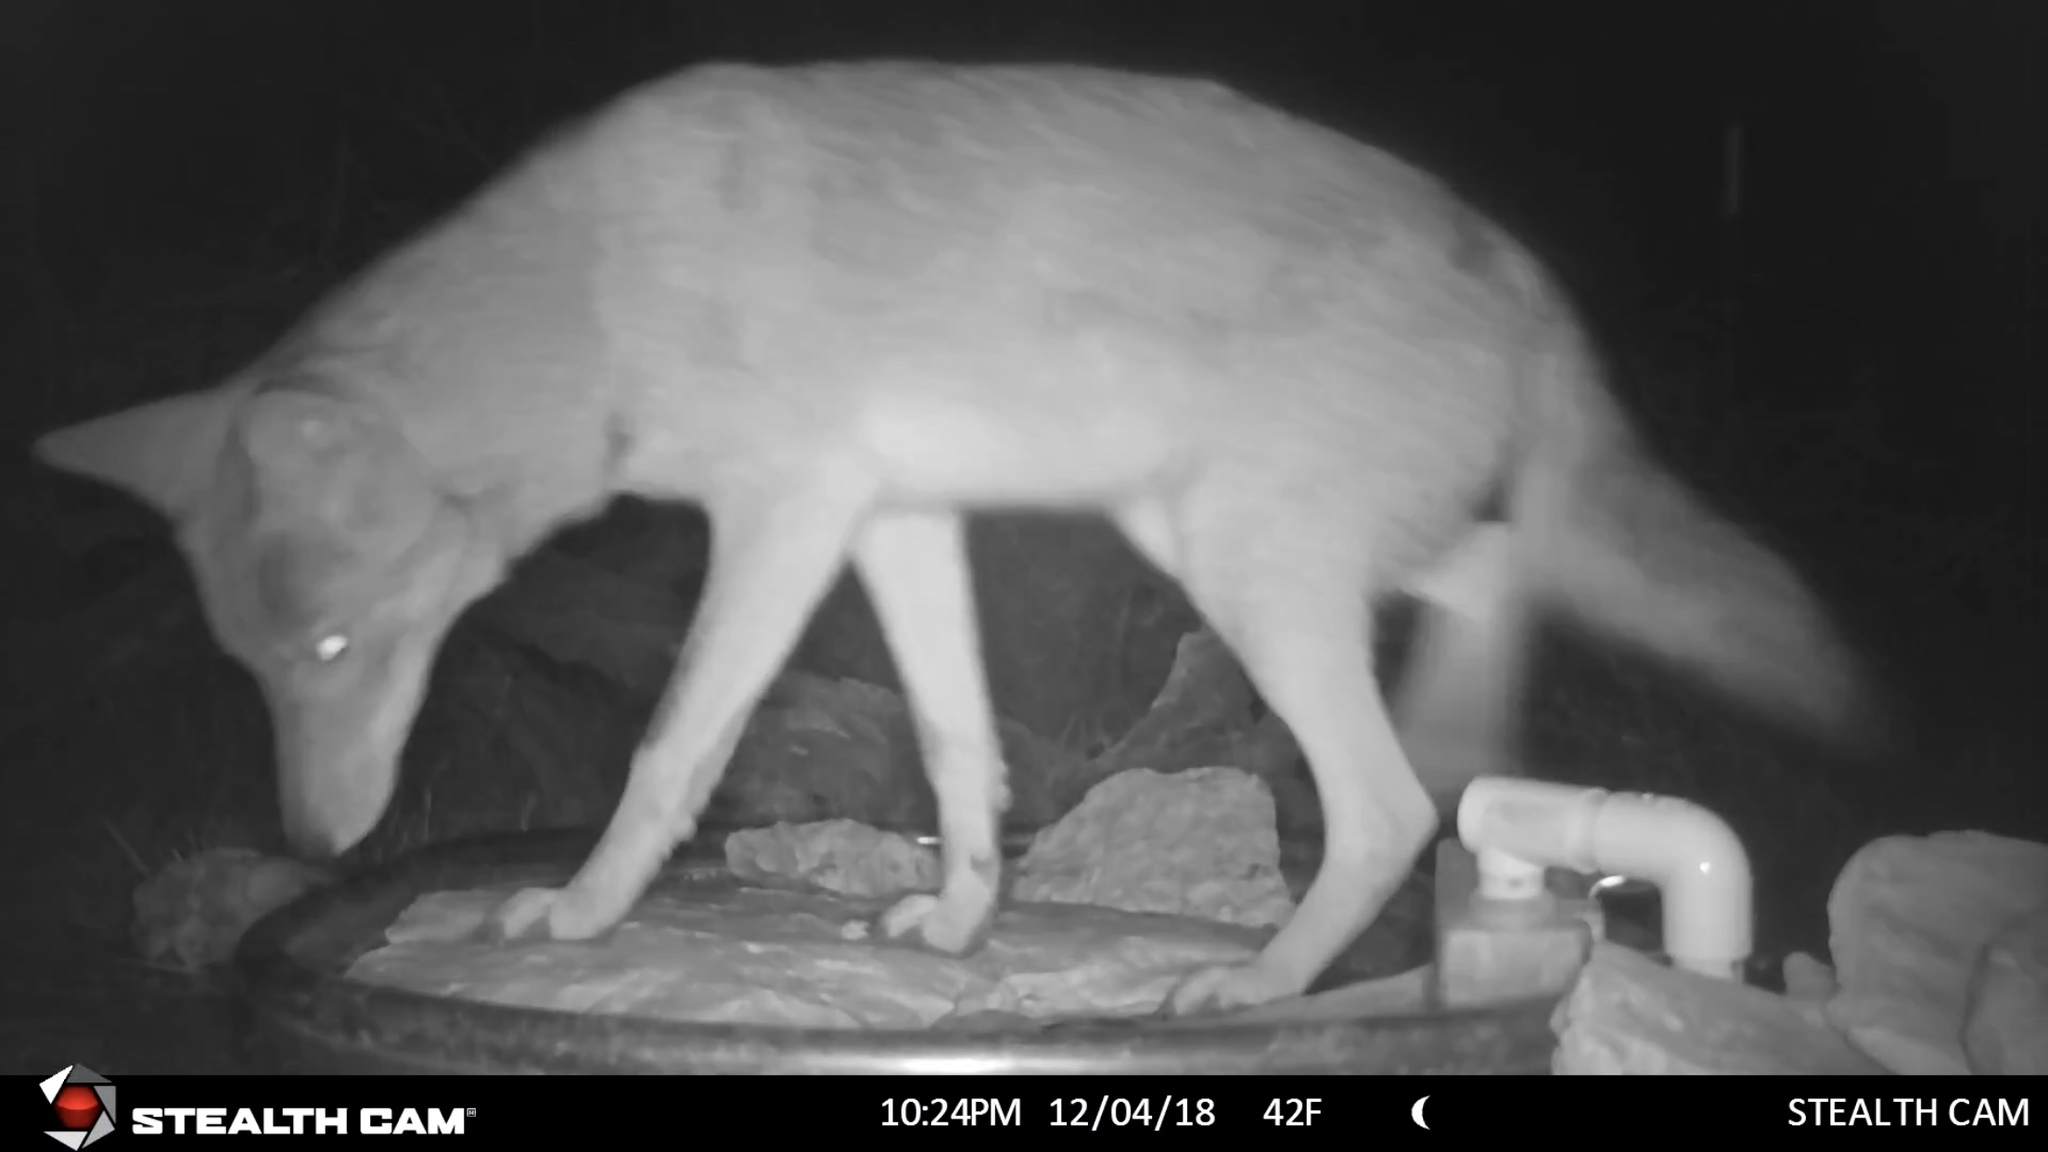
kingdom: Animalia
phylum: Chordata
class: Mammalia
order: Carnivora
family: Canidae
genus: Canis
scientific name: Canis latrans
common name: Coyote
